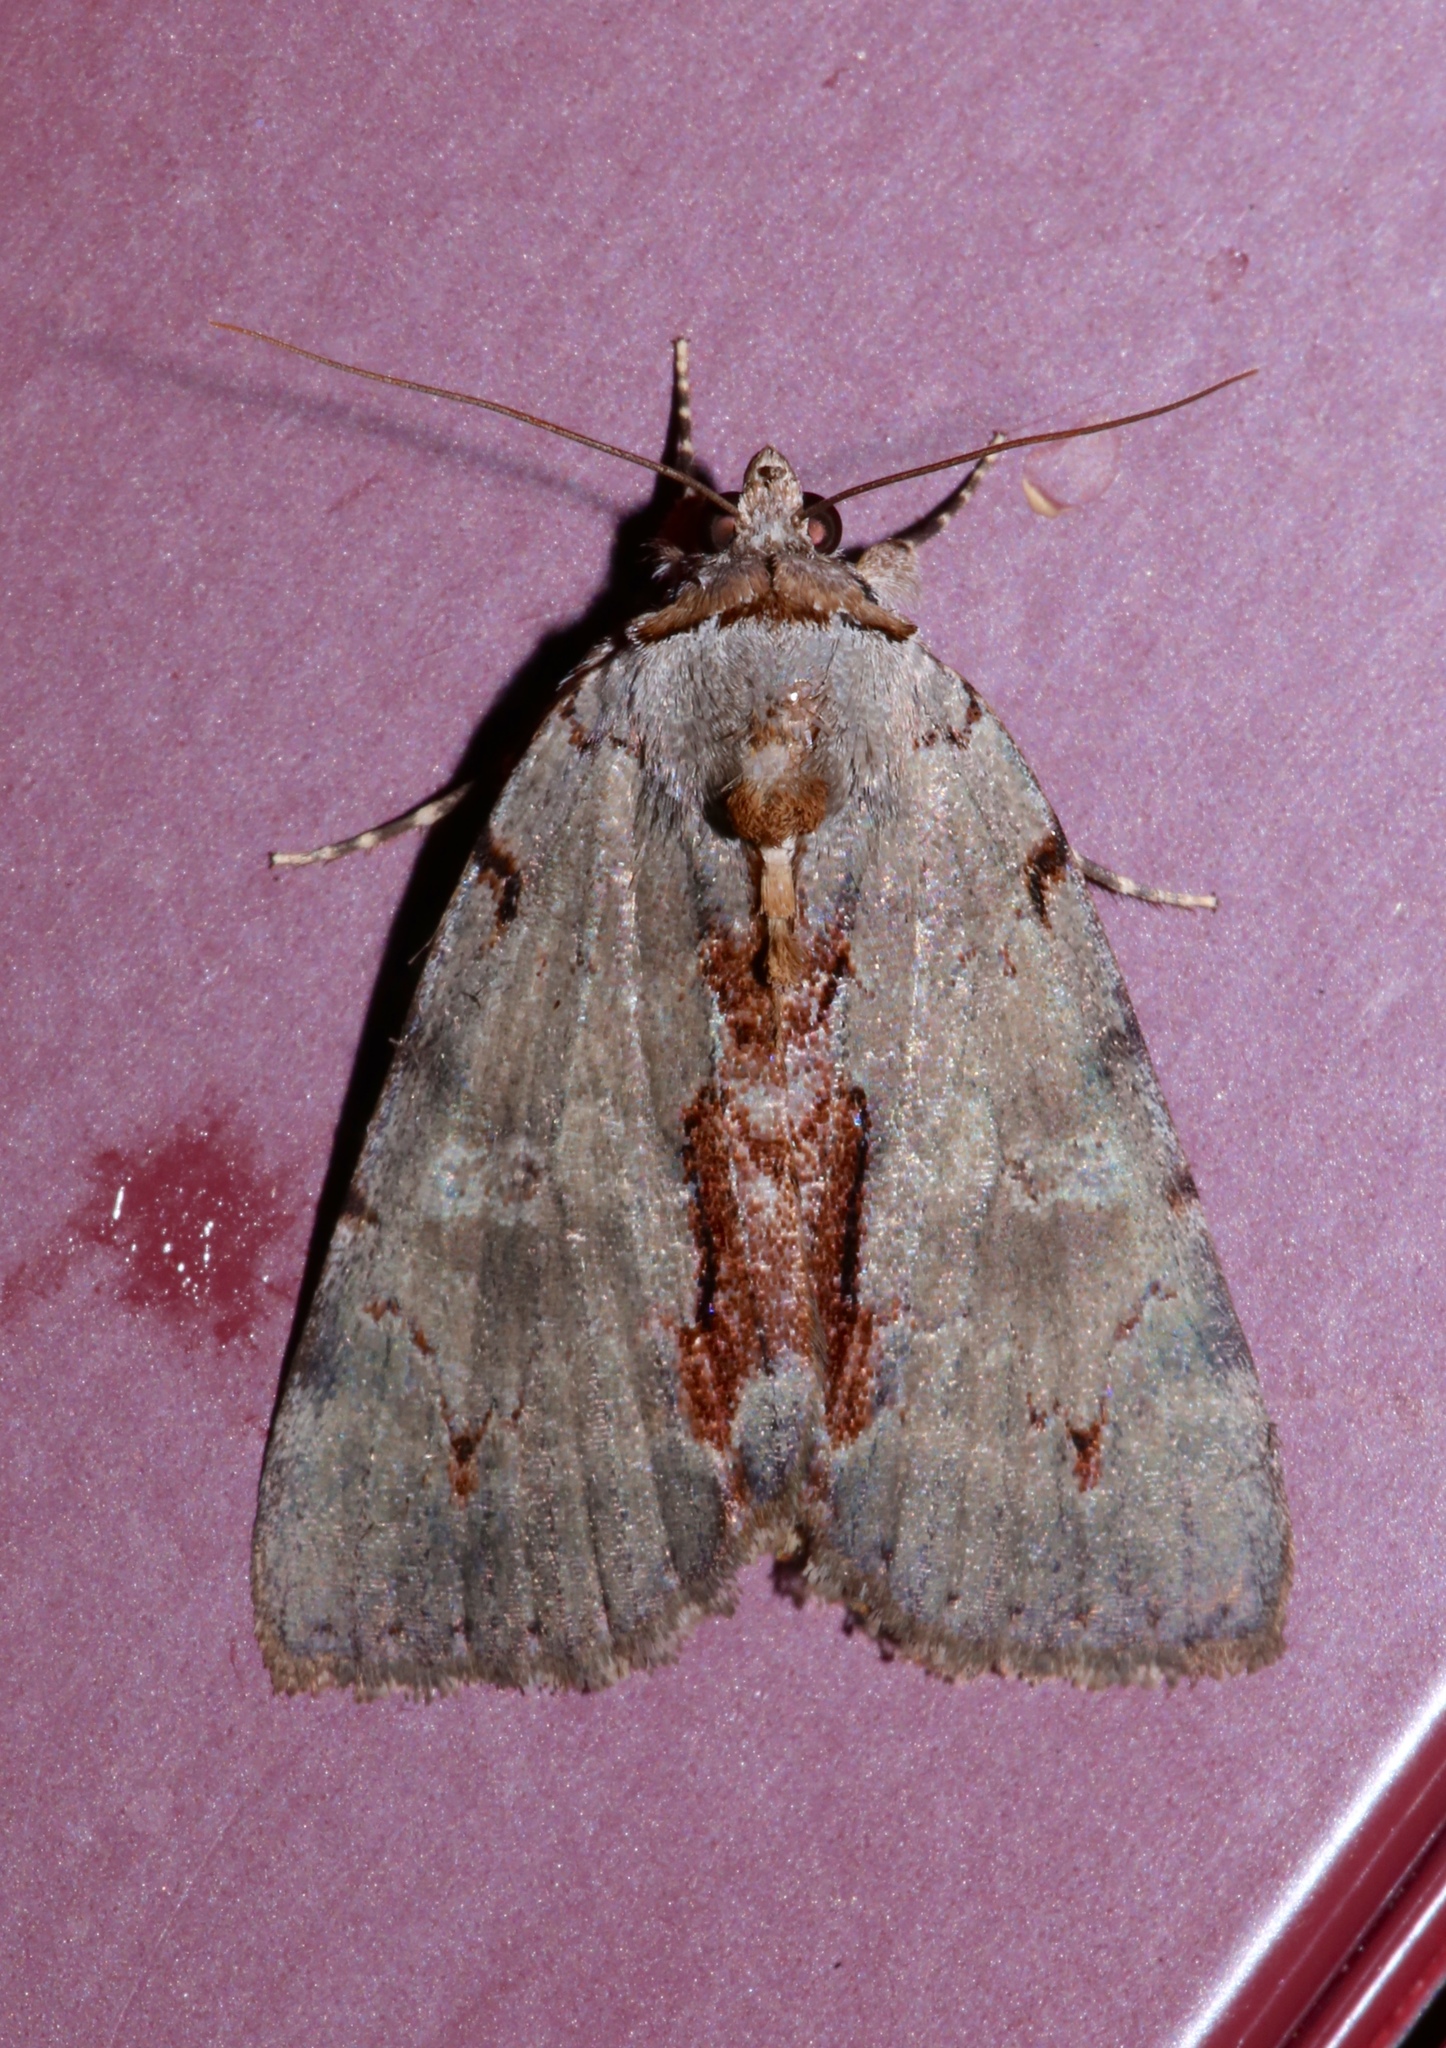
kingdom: Animalia
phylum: Arthropoda
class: Insecta
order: Lepidoptera
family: Erebidae
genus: Catocala
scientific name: Catocala grynea
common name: Woody underwing
